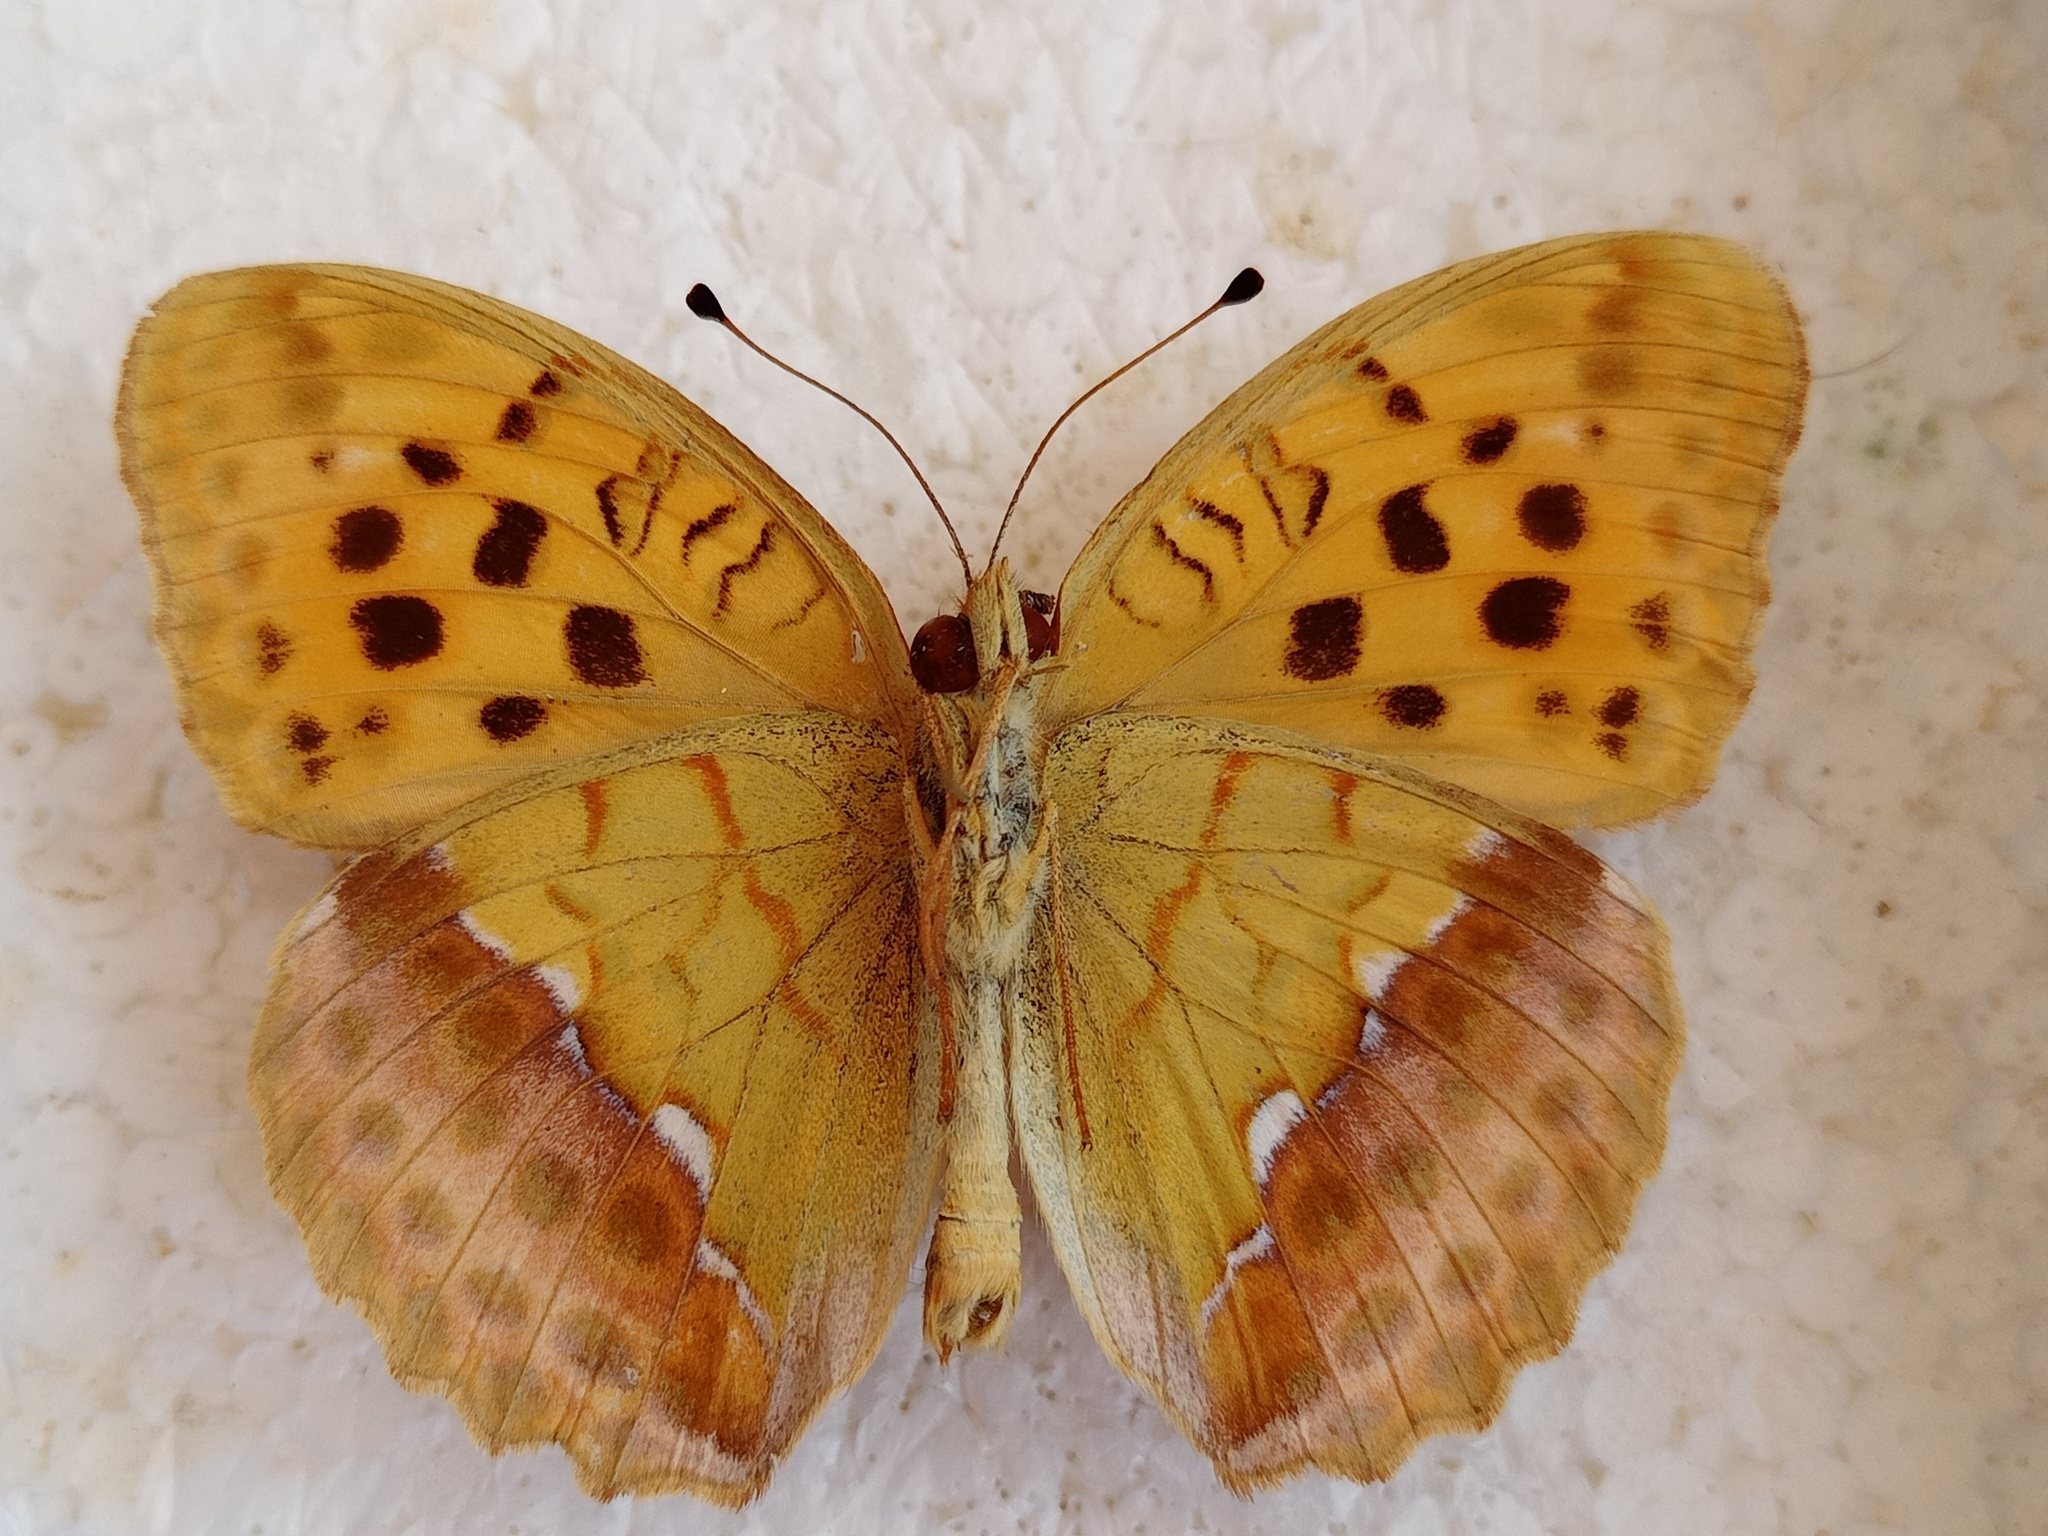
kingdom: Animalia
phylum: Arthropoda
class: Insecta
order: Lepidoptera
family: Nymphalidae
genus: Argyronome
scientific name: Argyronome laodice
